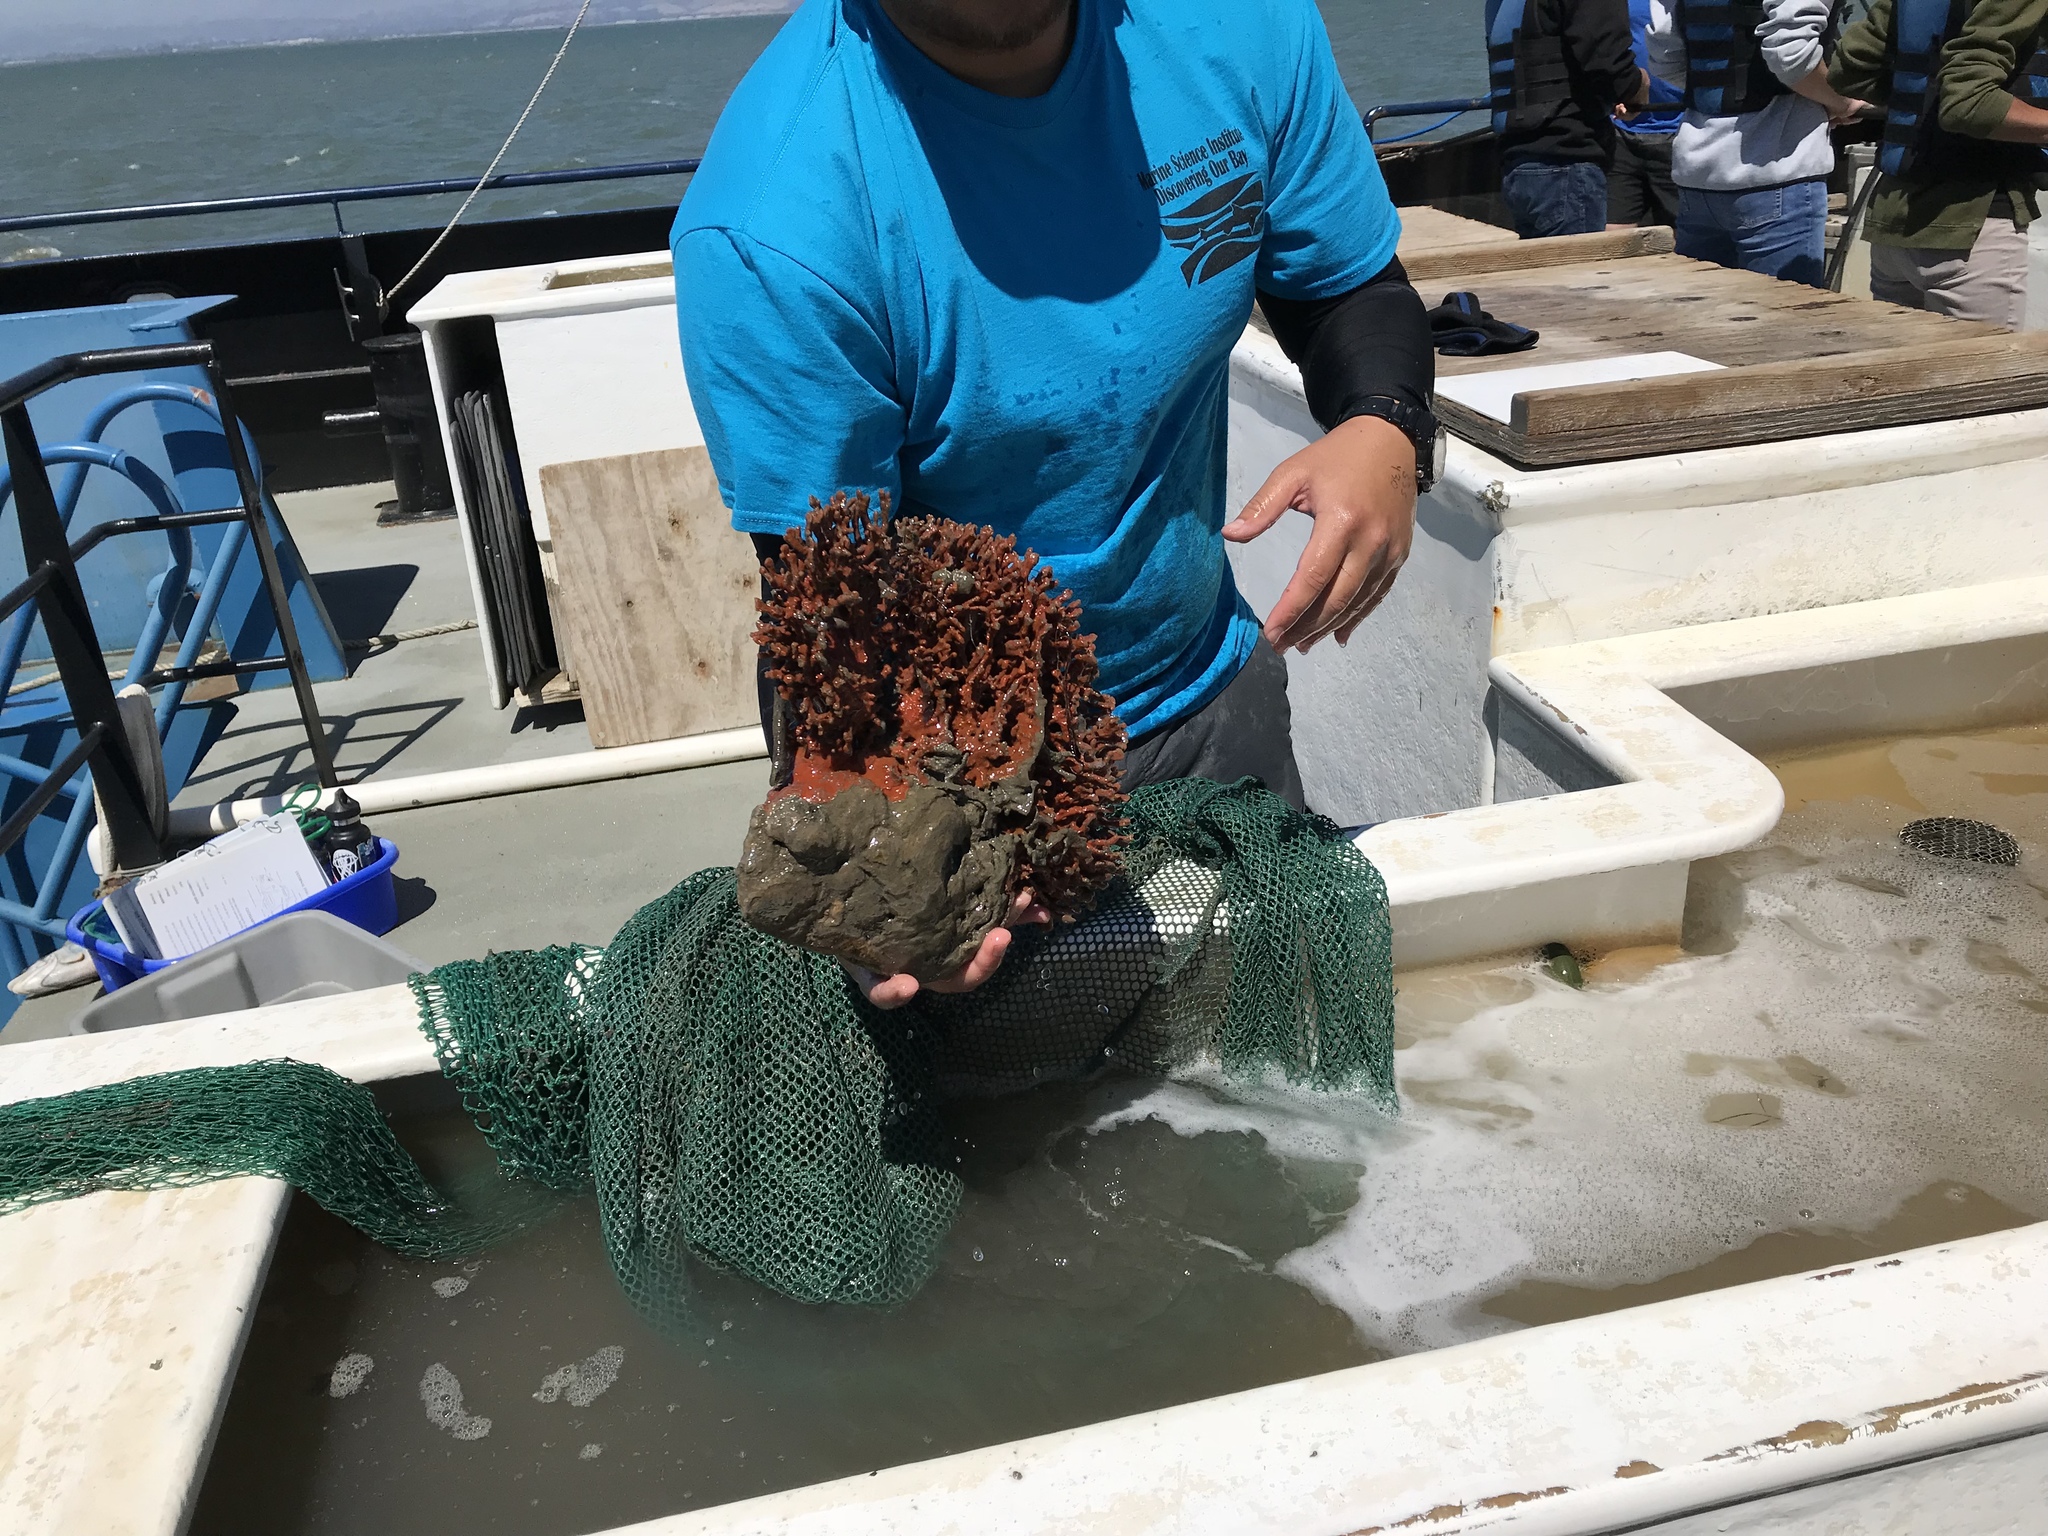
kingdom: Animalia
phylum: Porifera
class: Demospongiae
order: Poecilosclerida
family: Microcionidae
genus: Clathria
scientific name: Clathria prolifera
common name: Red beard sponge
